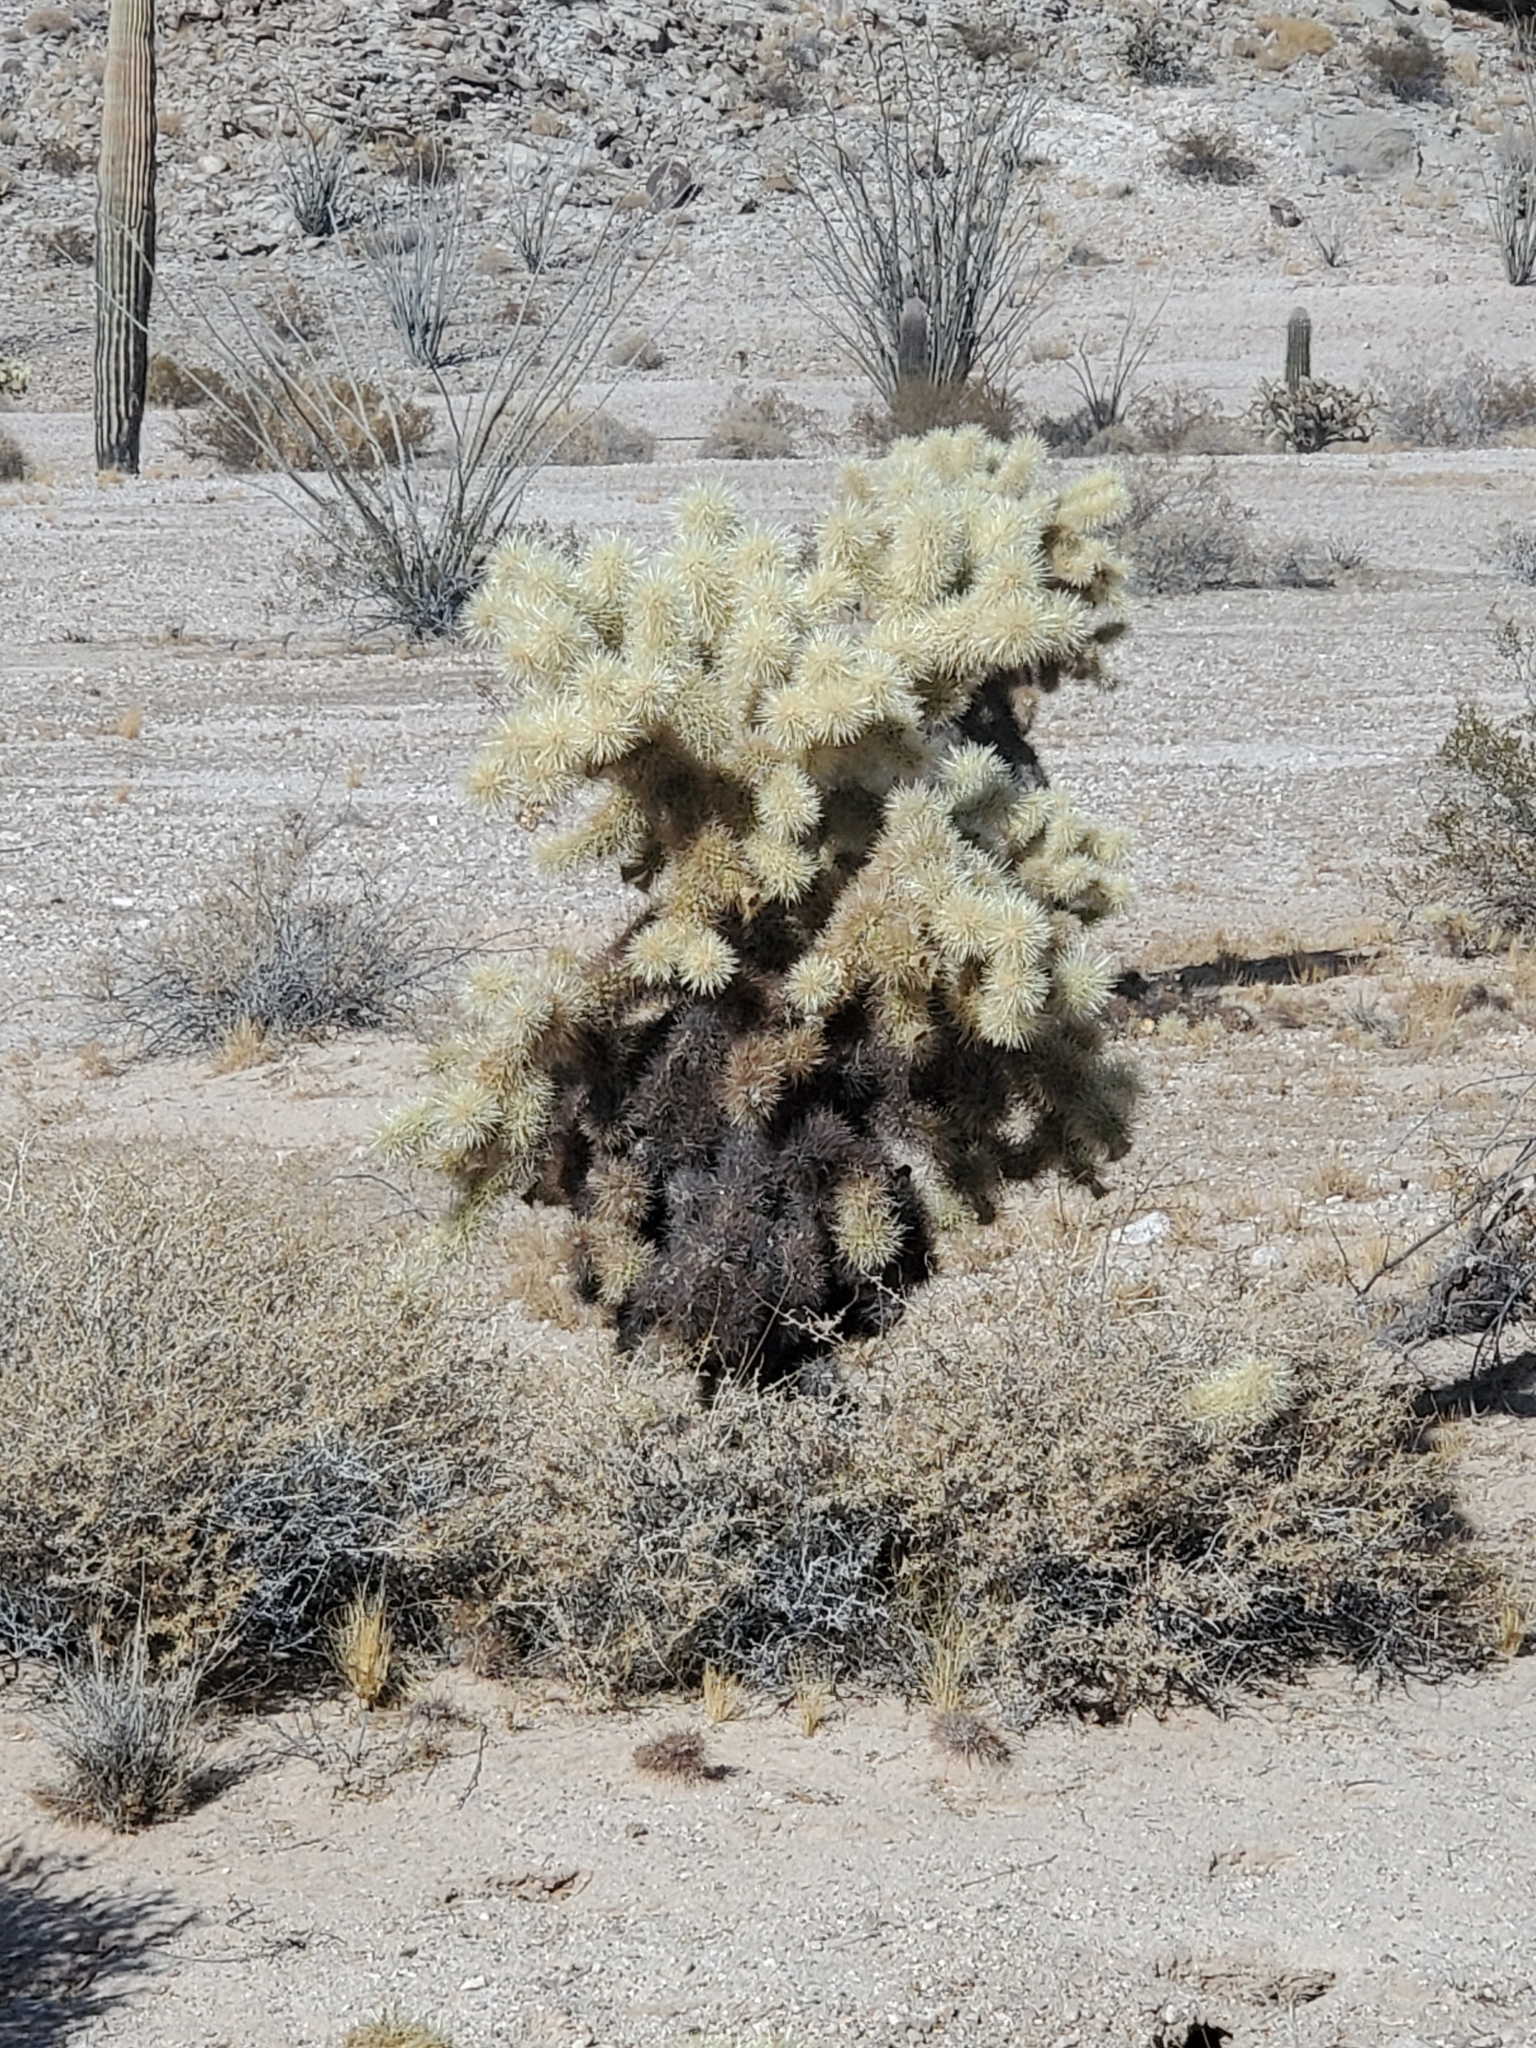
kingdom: Plantae
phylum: Tracheophyta
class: Magnoliopsida
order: Caryophyllales
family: Cactaceae
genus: Cylindropuntia
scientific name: Cylindropuntia fosbergii
